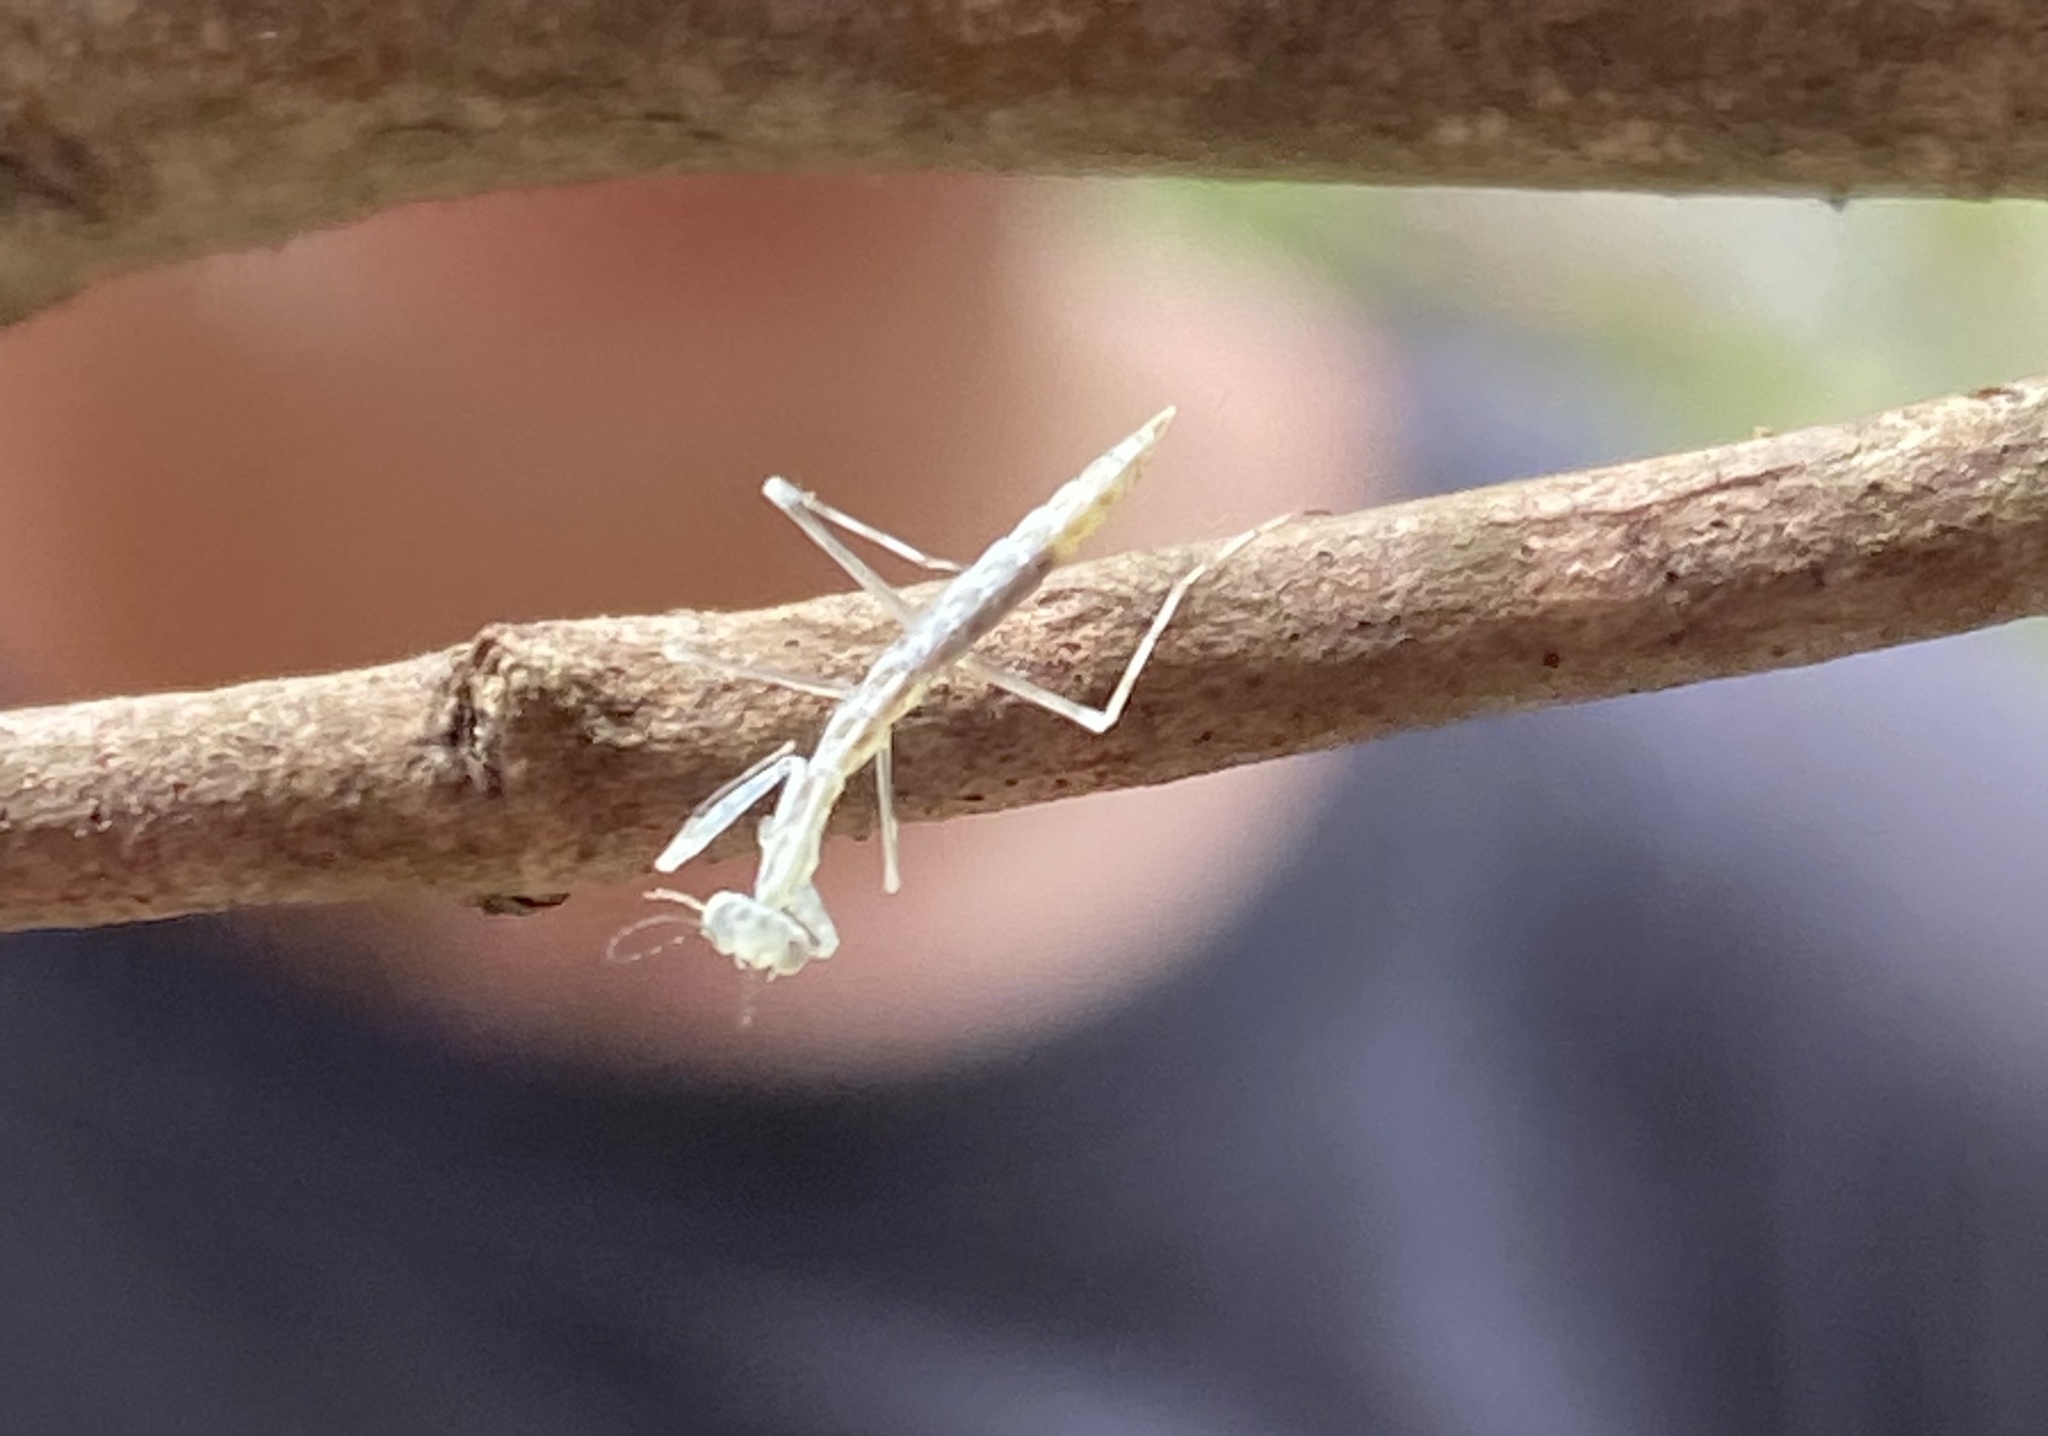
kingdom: Animalia
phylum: Arthropoda
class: Insecta
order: Mantodea
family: Nanomantidae
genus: Kongobatha
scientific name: Kongobatha diademata
